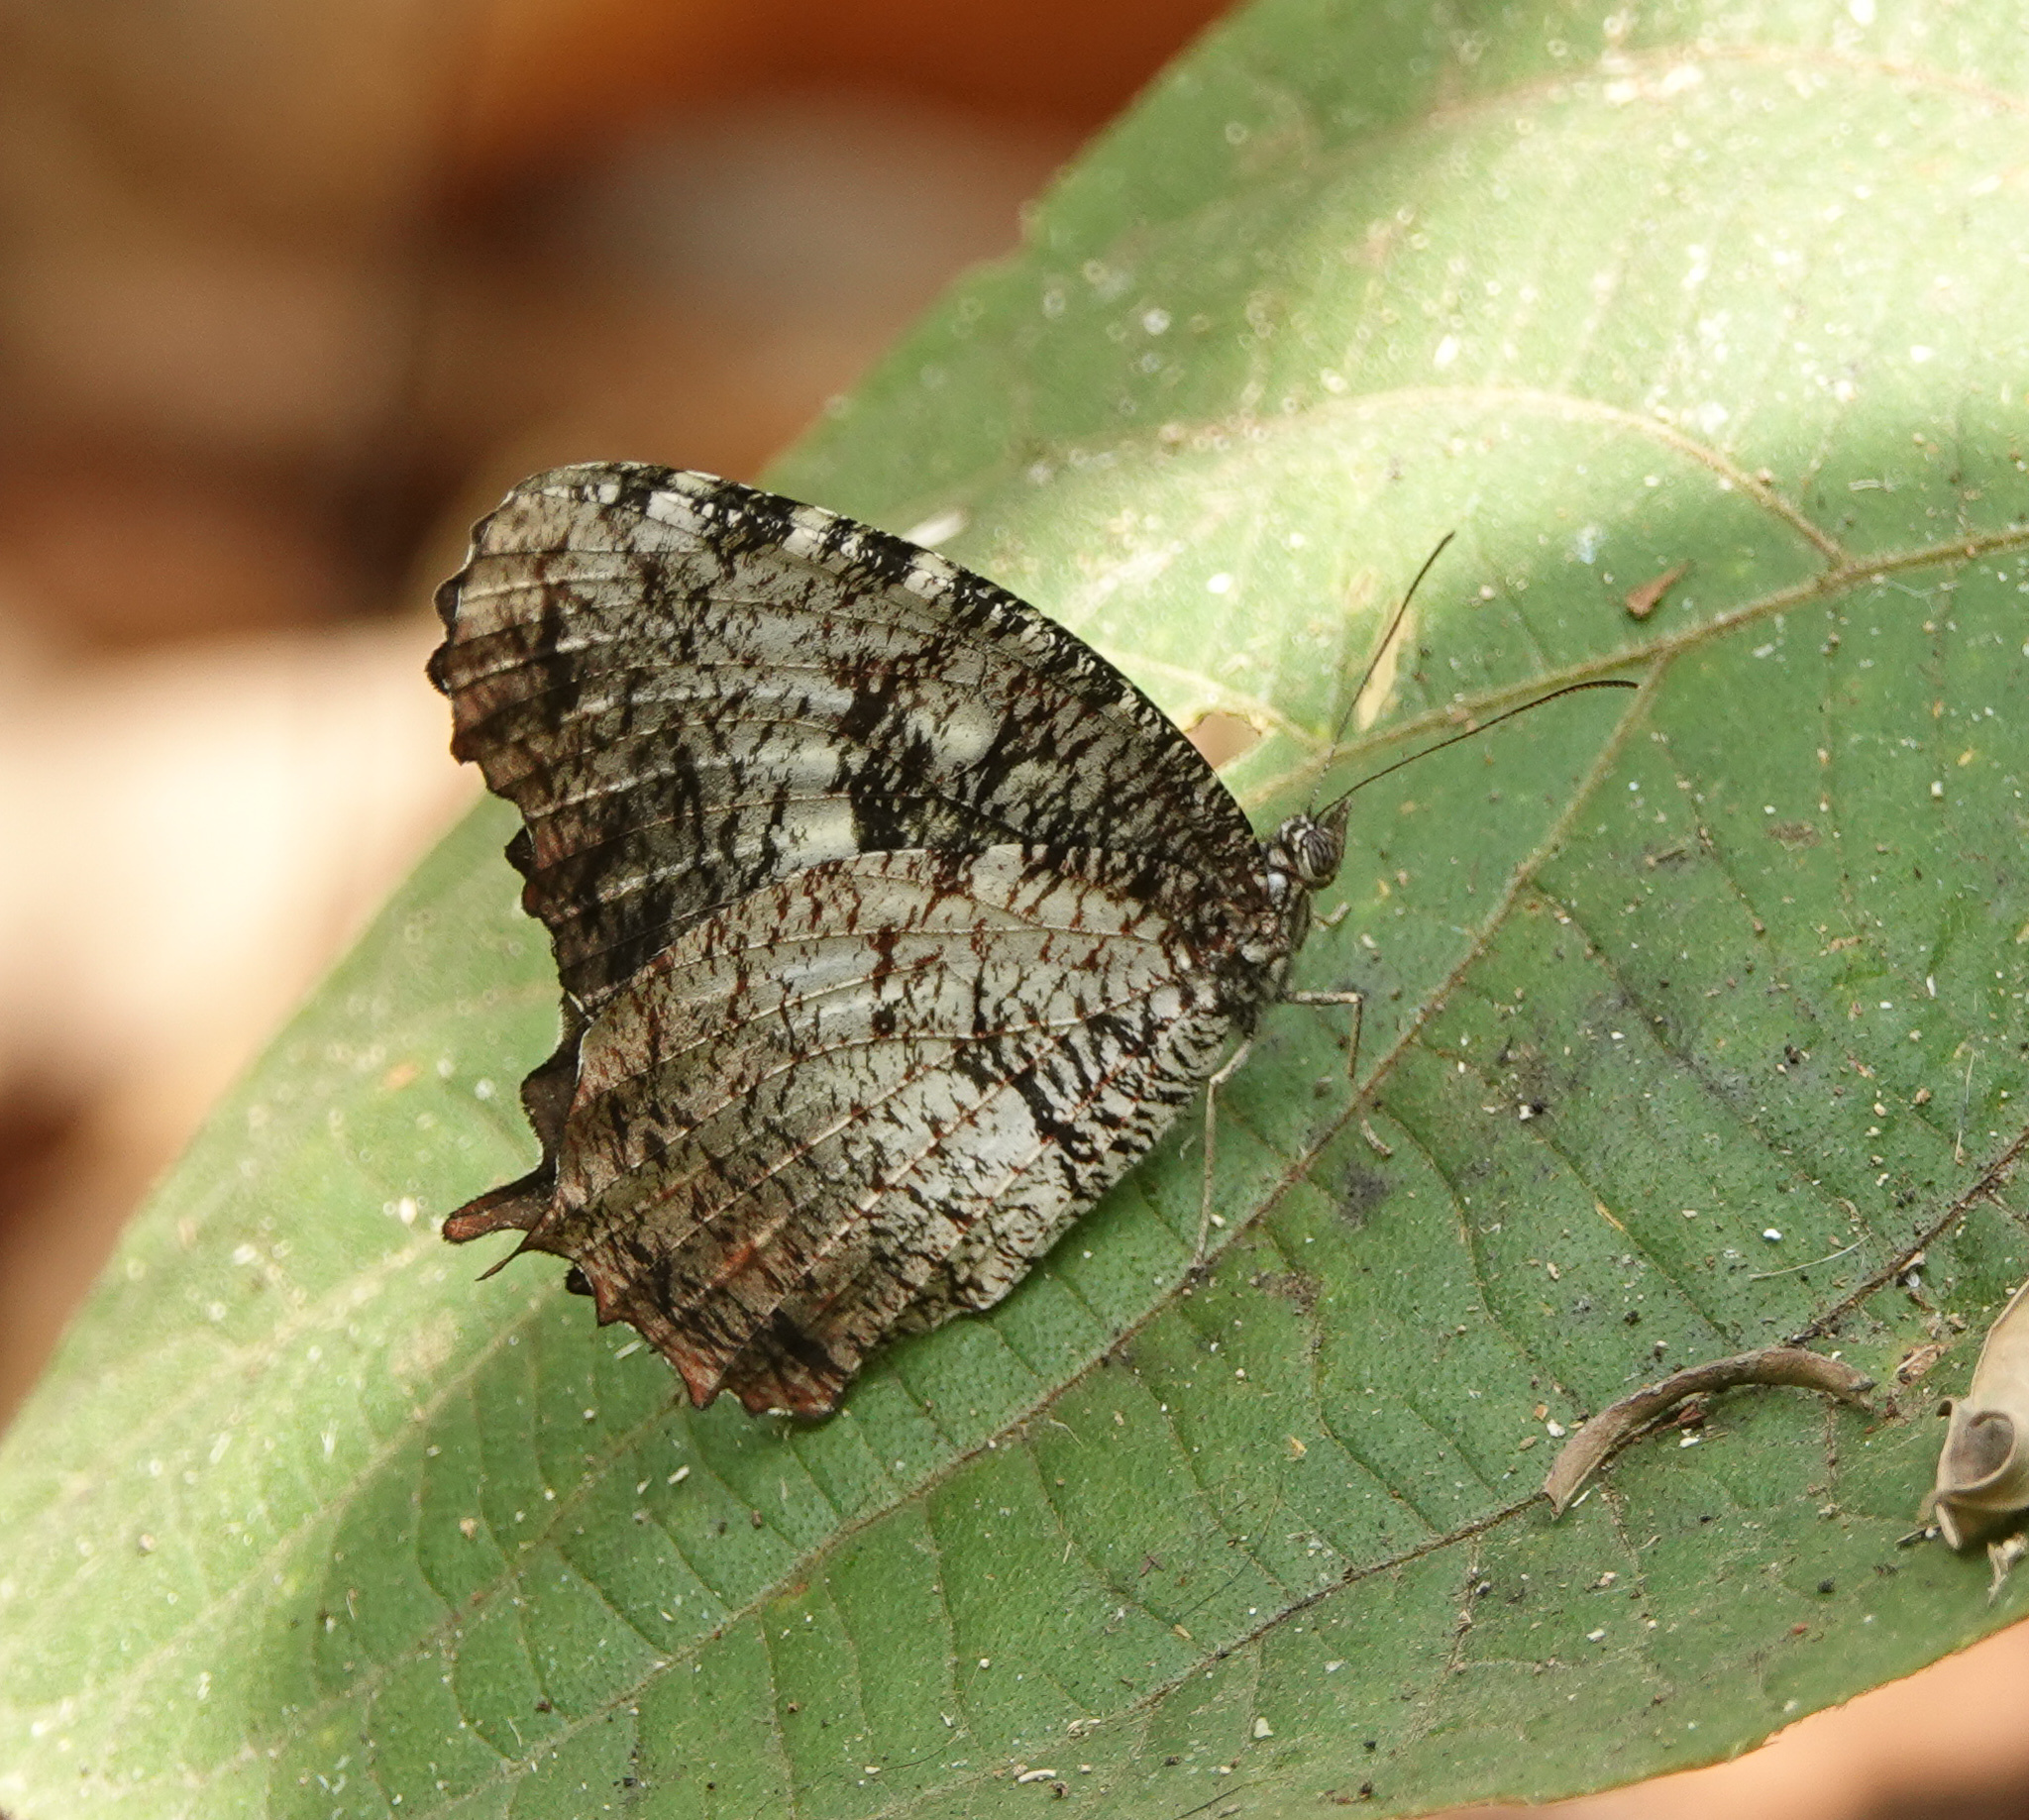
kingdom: Animalia
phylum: Arthropoda
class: Insecta
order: Lepidoptera
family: Nymphalidae
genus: Elymnias
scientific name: Elymnias nesaea
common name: Tiger palmfly
